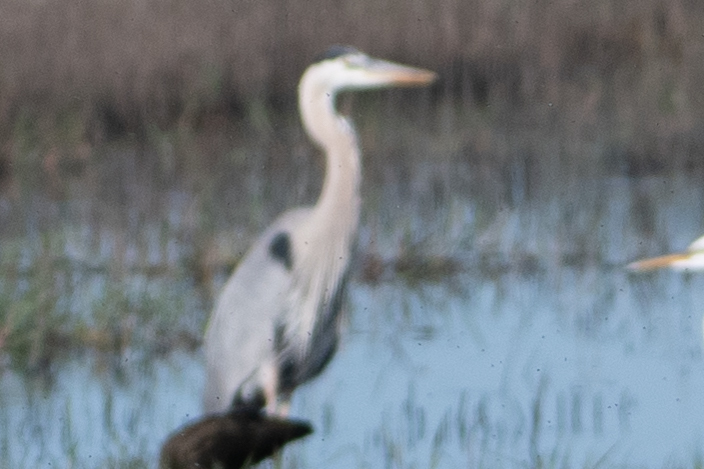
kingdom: Animalia
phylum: Chordata
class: Aves
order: Pelecaniformes
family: Ardeidae
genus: Ardea
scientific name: Ardea herodias
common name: Great blue heron
